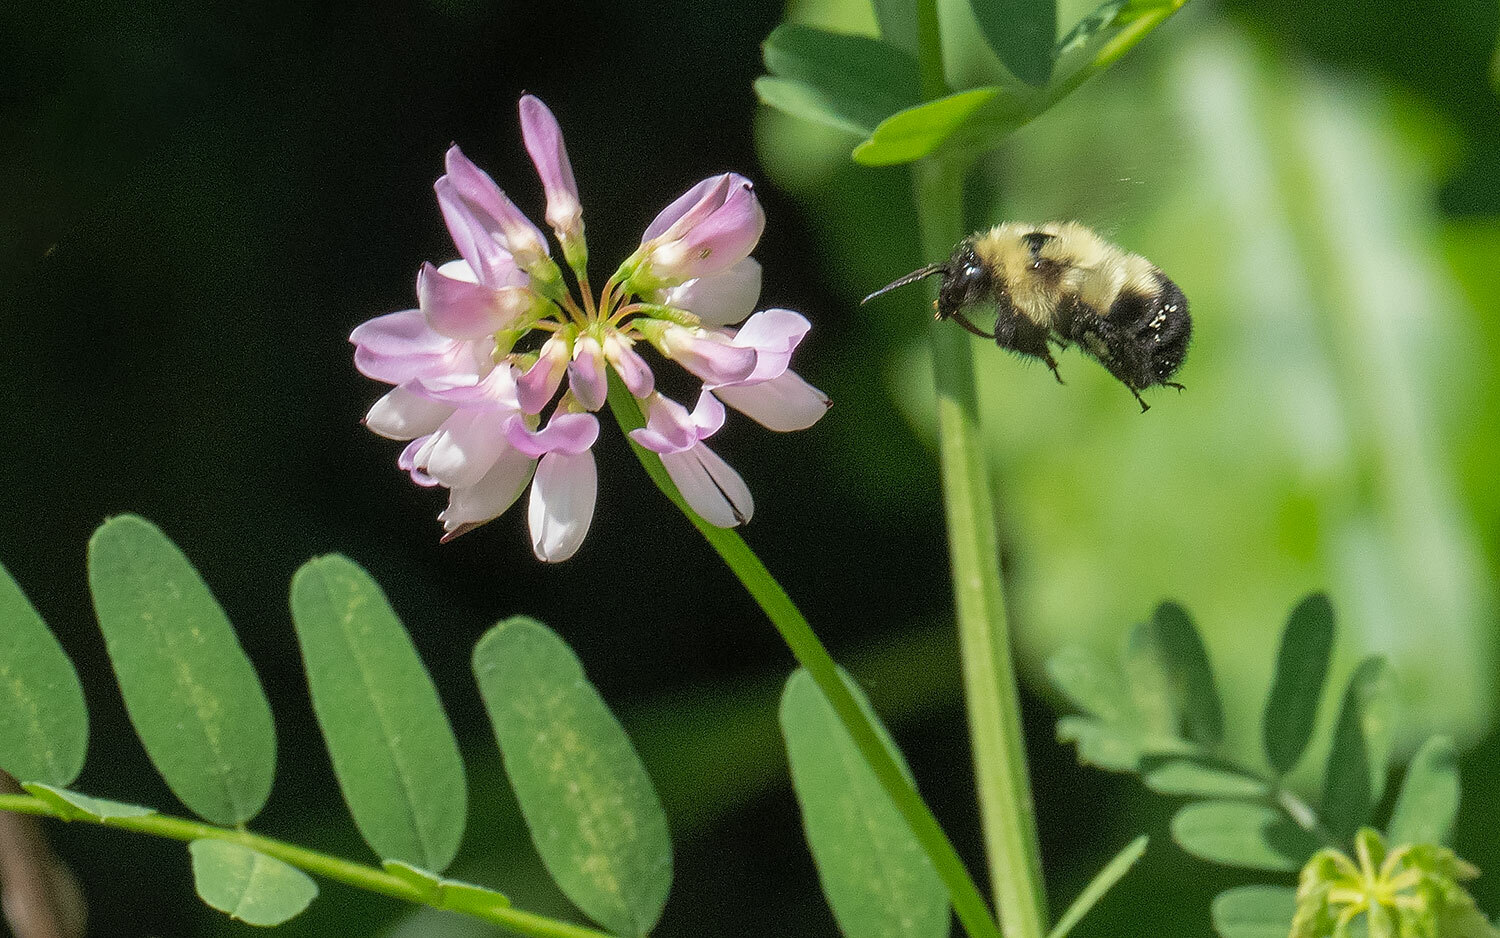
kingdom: Animalia
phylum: Arthropoda
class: Insecta
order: Hymenoptera
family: Apidae
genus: Bombus
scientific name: Bombus bimaculatus
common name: Two-spotted bumble bee
